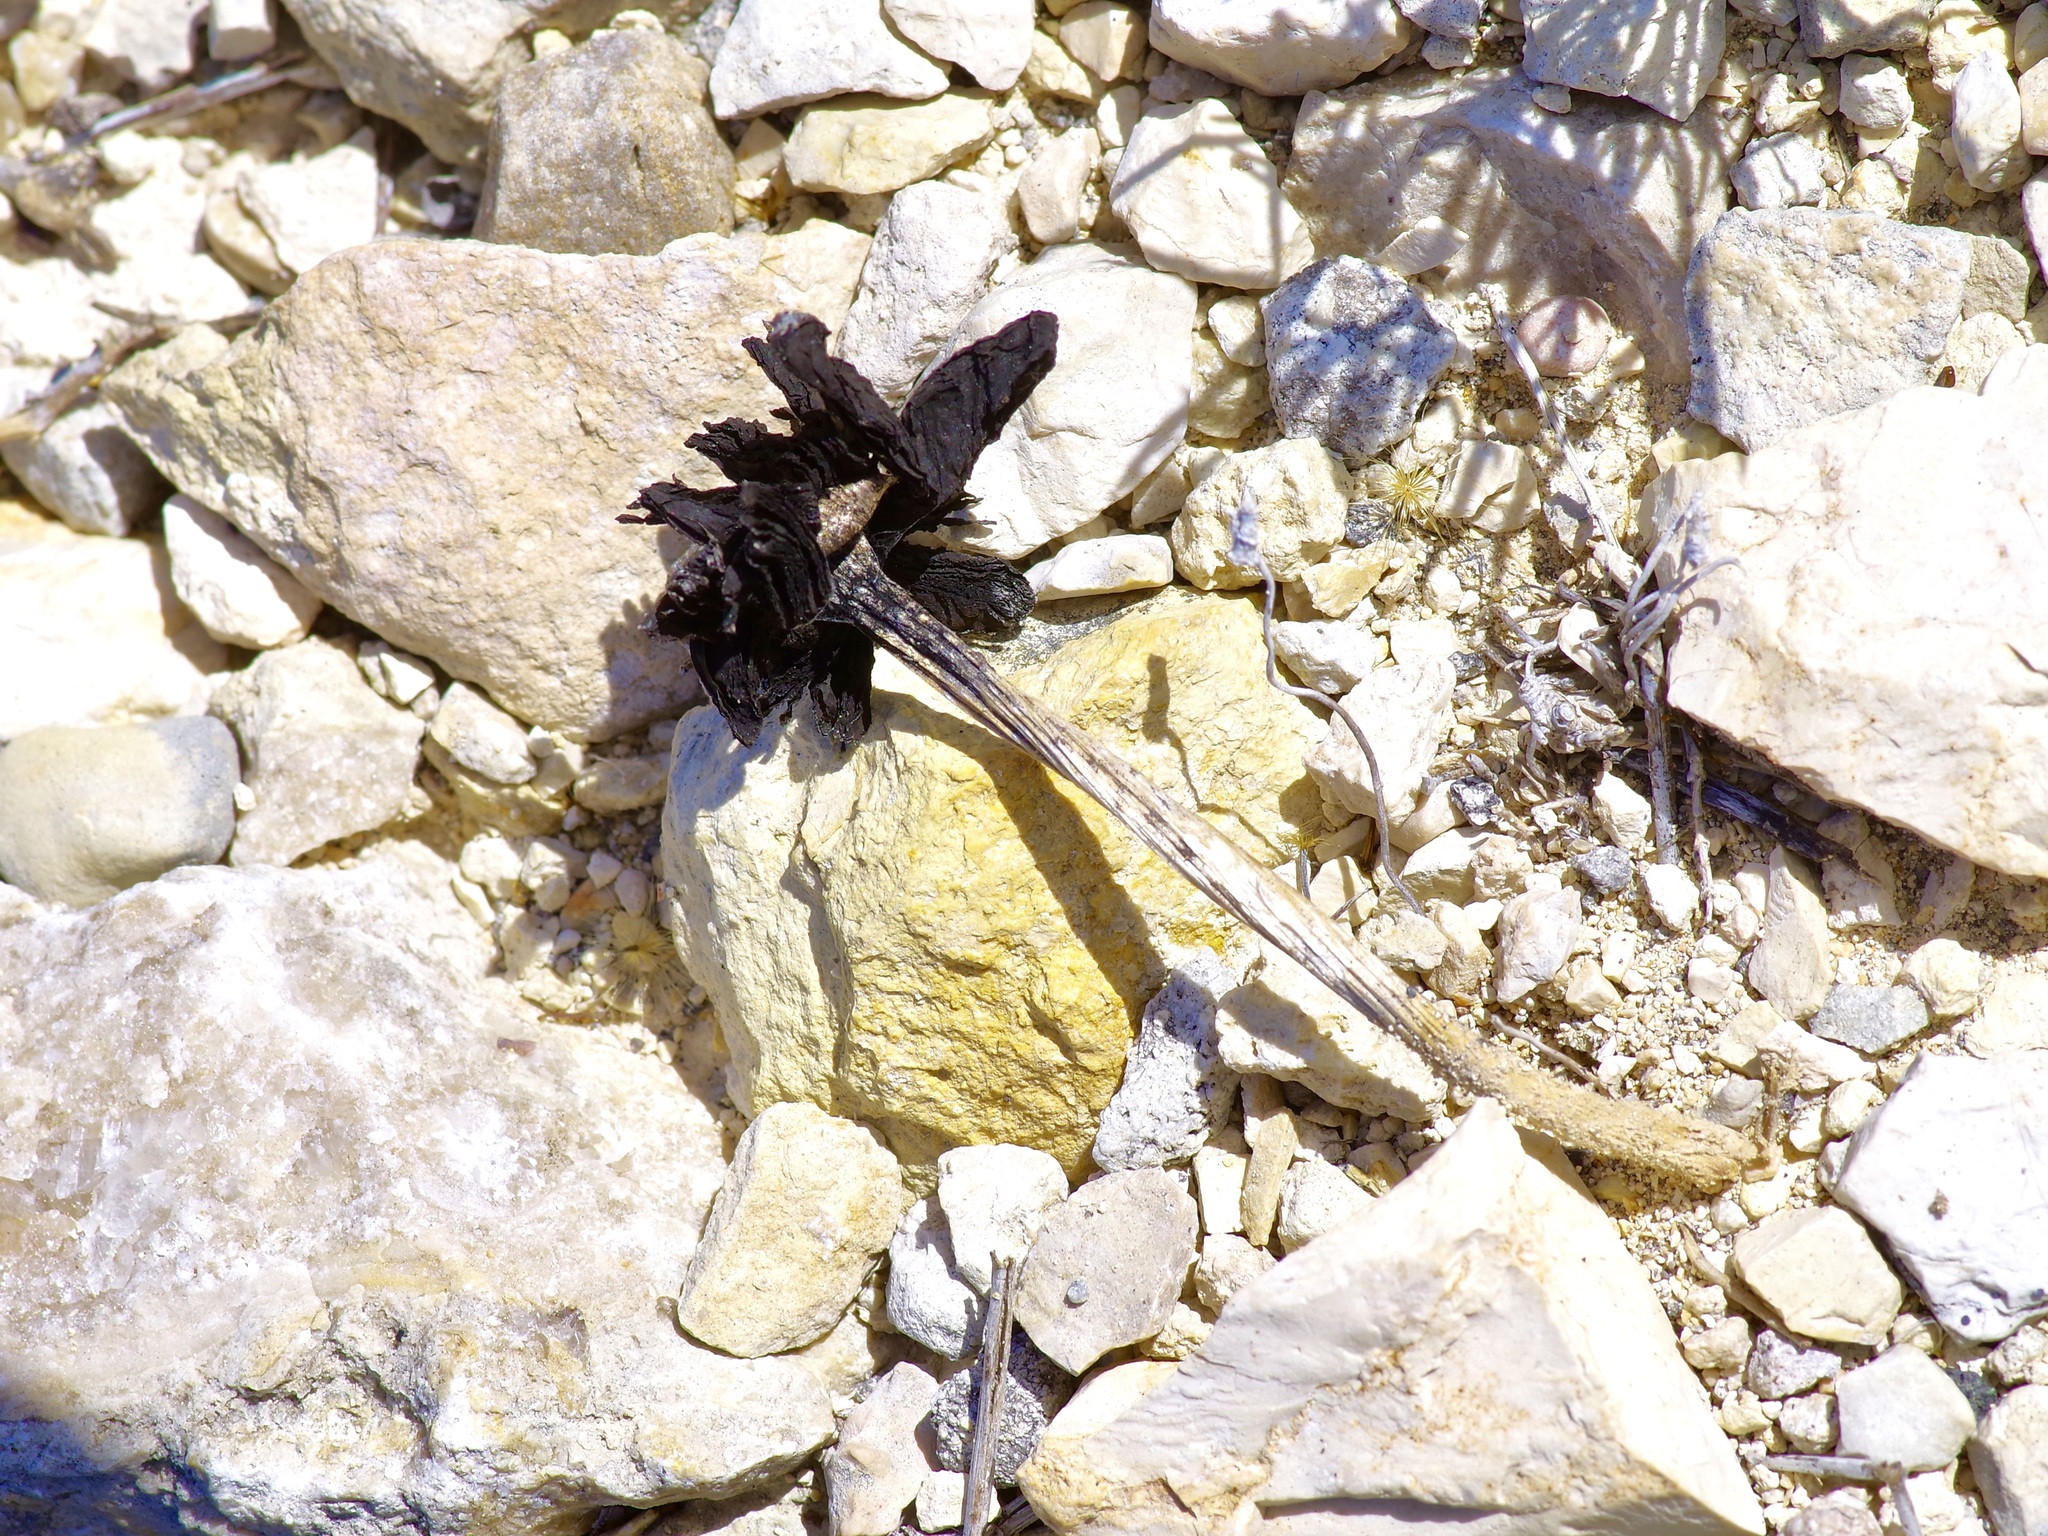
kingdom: Fungi
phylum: Basidiomycota
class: Agaricomycetes
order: Agaricales
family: Agaricaceae
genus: Montagnea
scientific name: Montagnea arenaria
